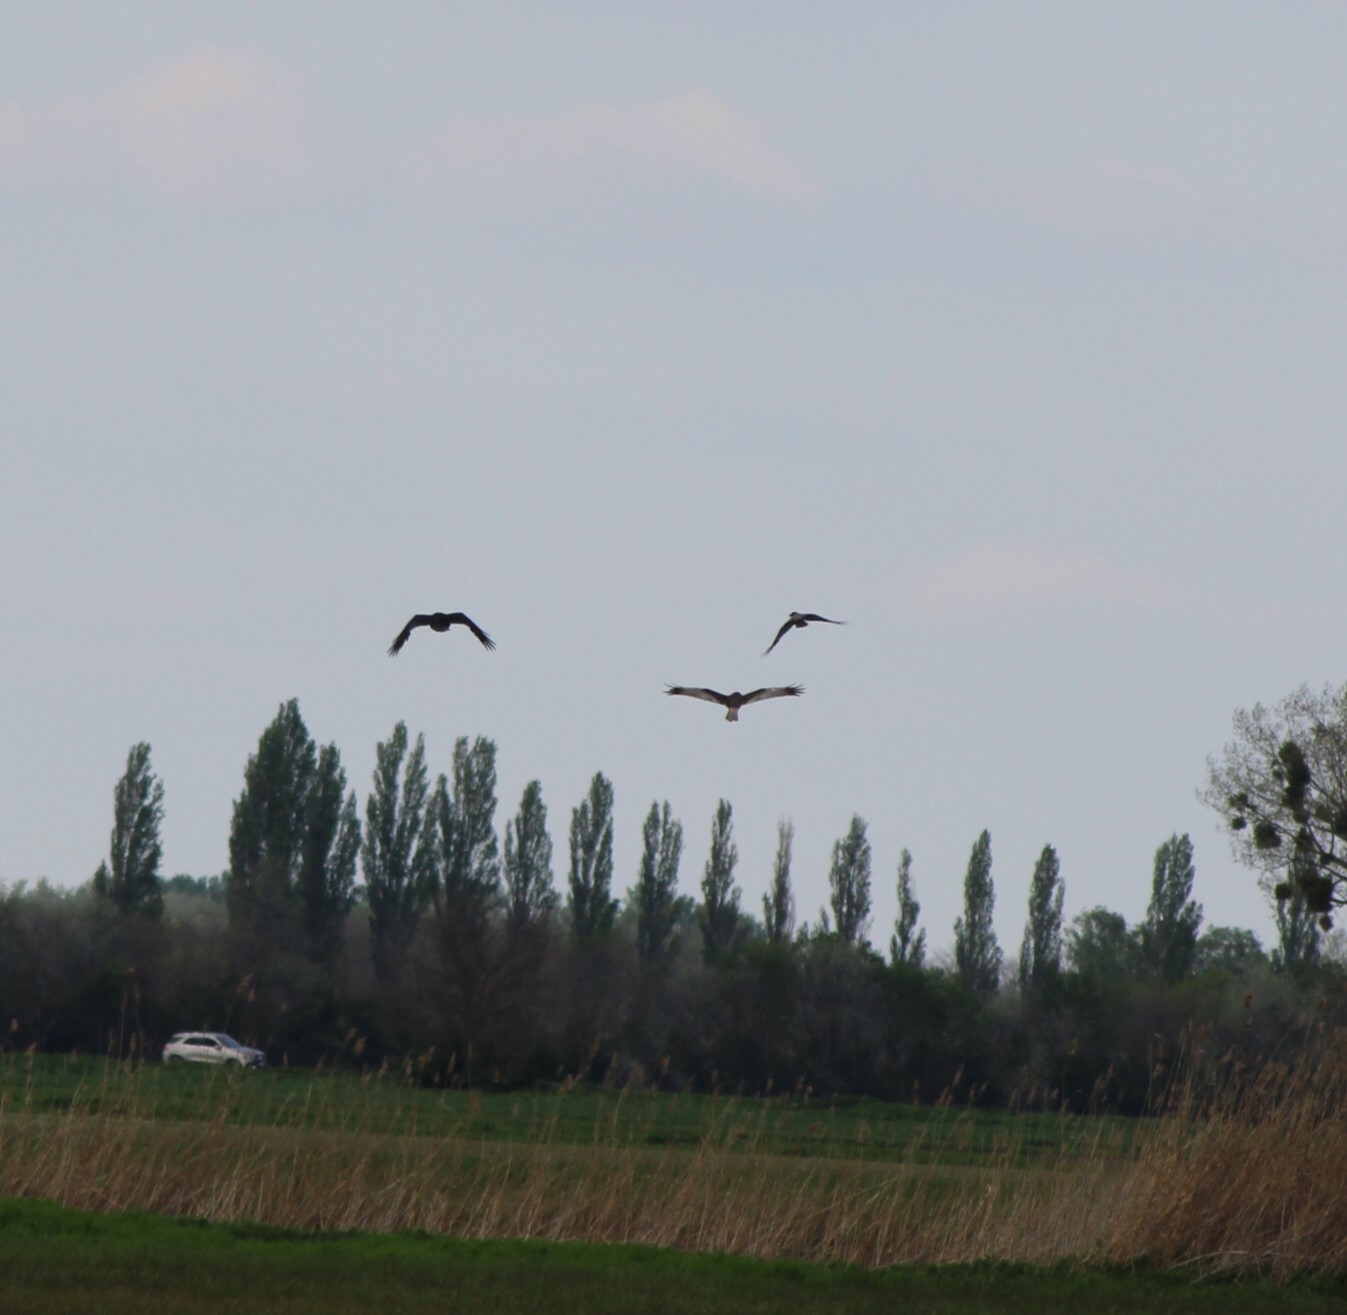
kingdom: Animalia
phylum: Chordata
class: Aves
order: Accipitriformes
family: Accipitridae
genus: Circus
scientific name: Circus aeruginosus
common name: Western marsh harrier
